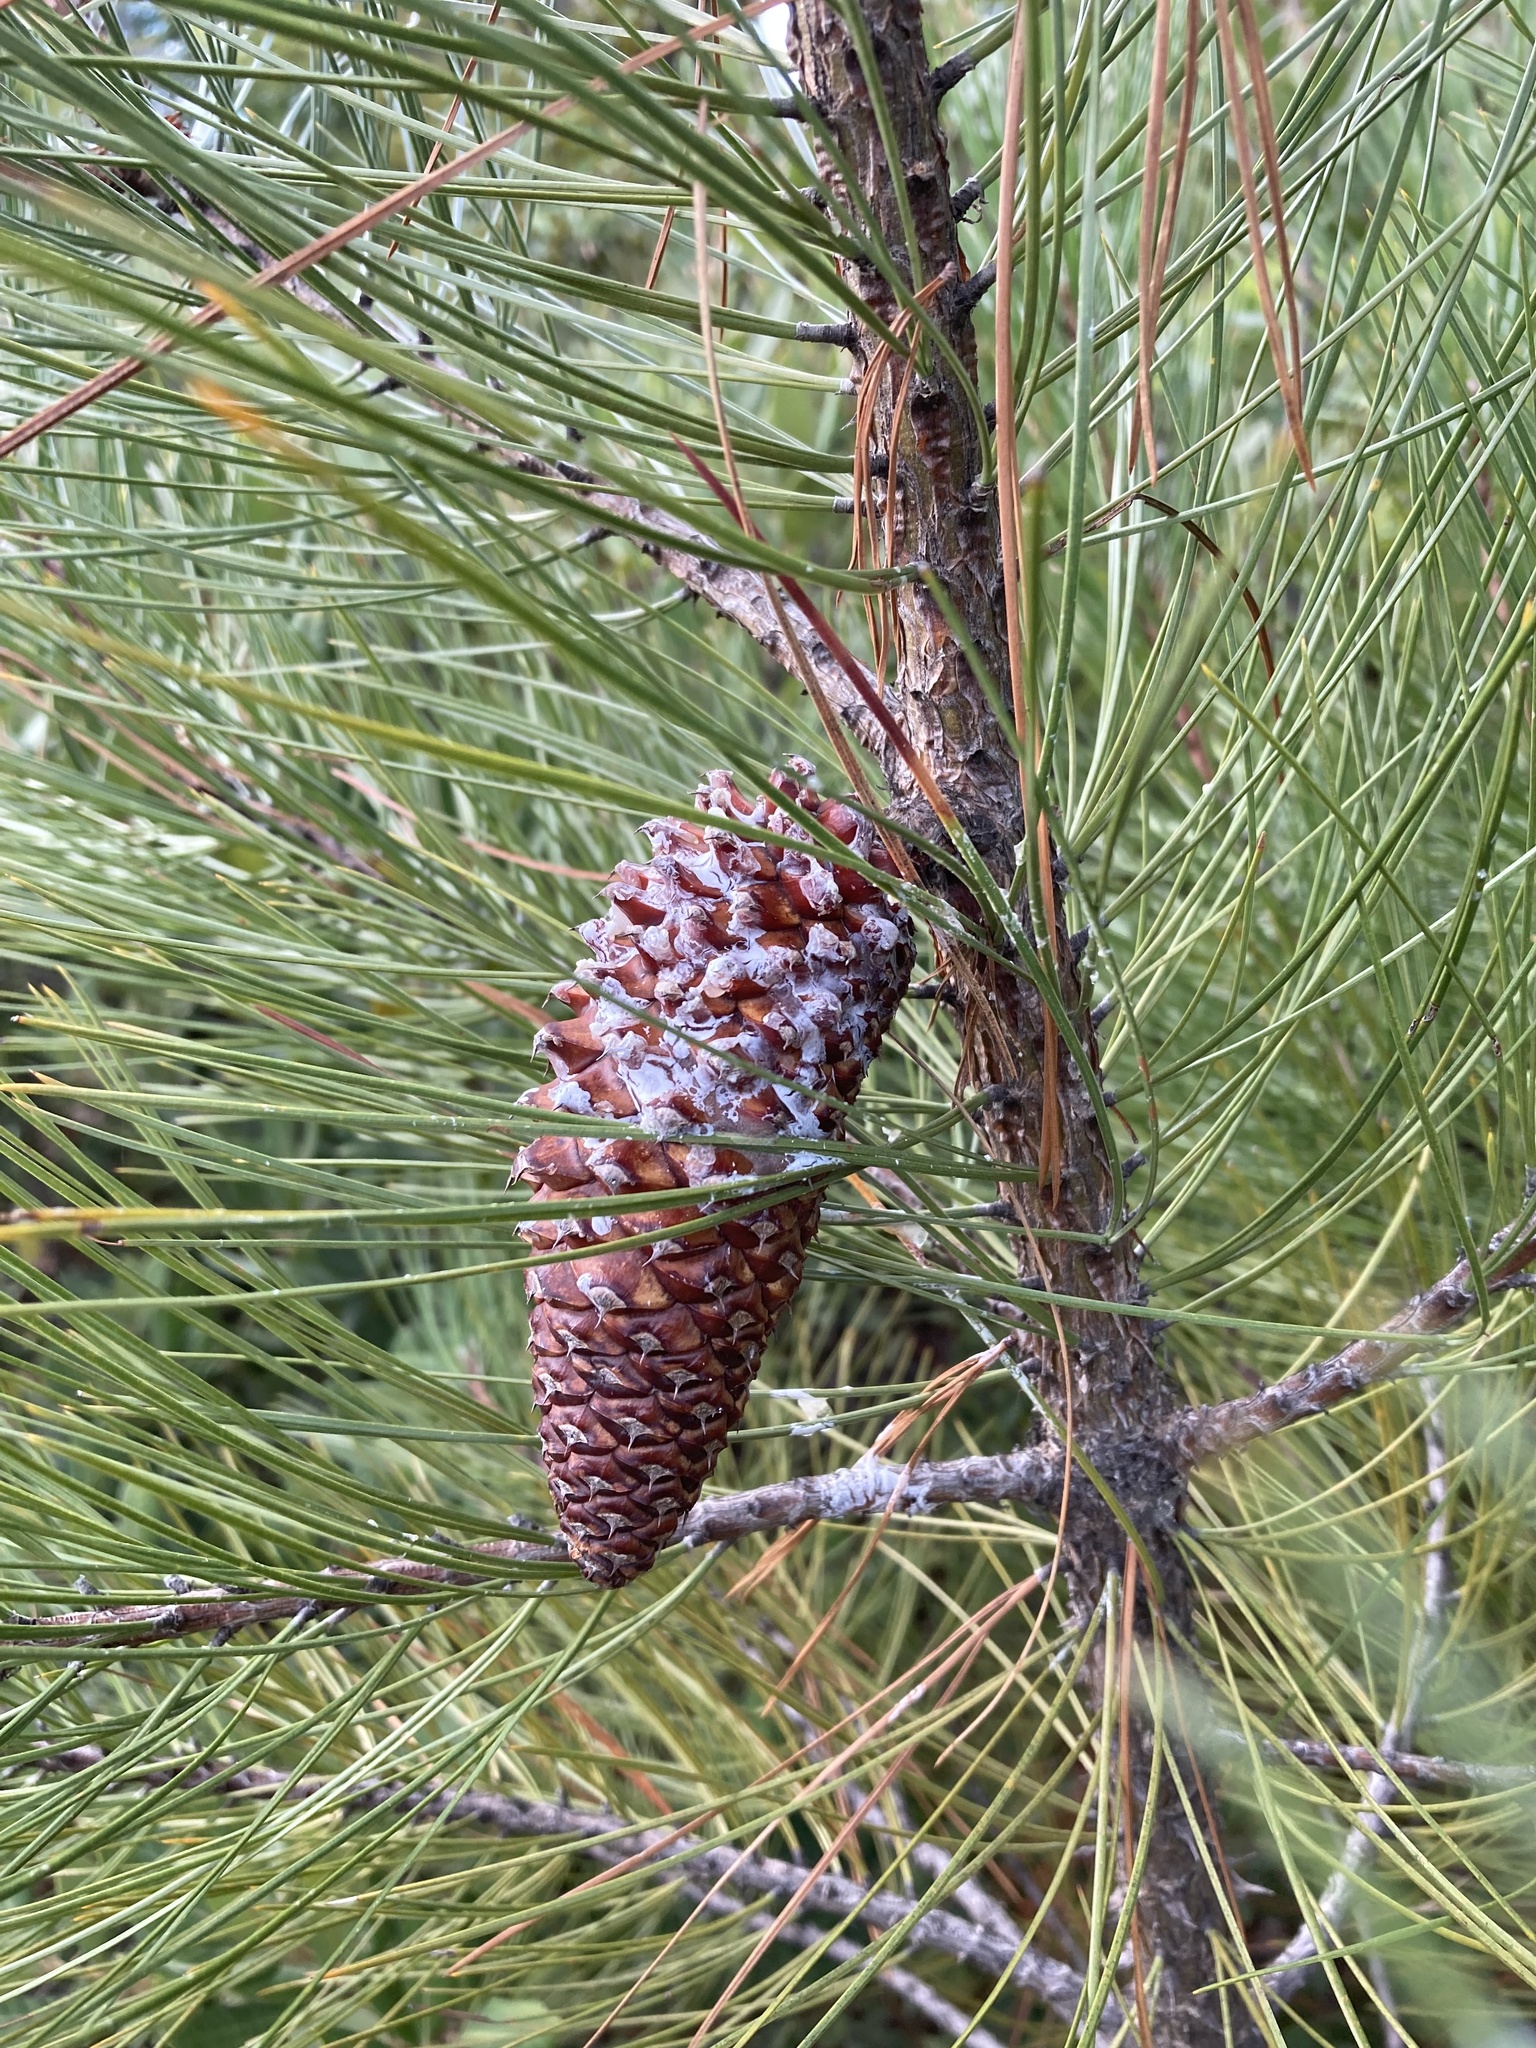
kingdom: Plantae
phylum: Tracheophyta
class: Pinopsida
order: Pinales
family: Pinaceae
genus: Pinus
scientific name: Pinus attenuata
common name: Knobcone pine
